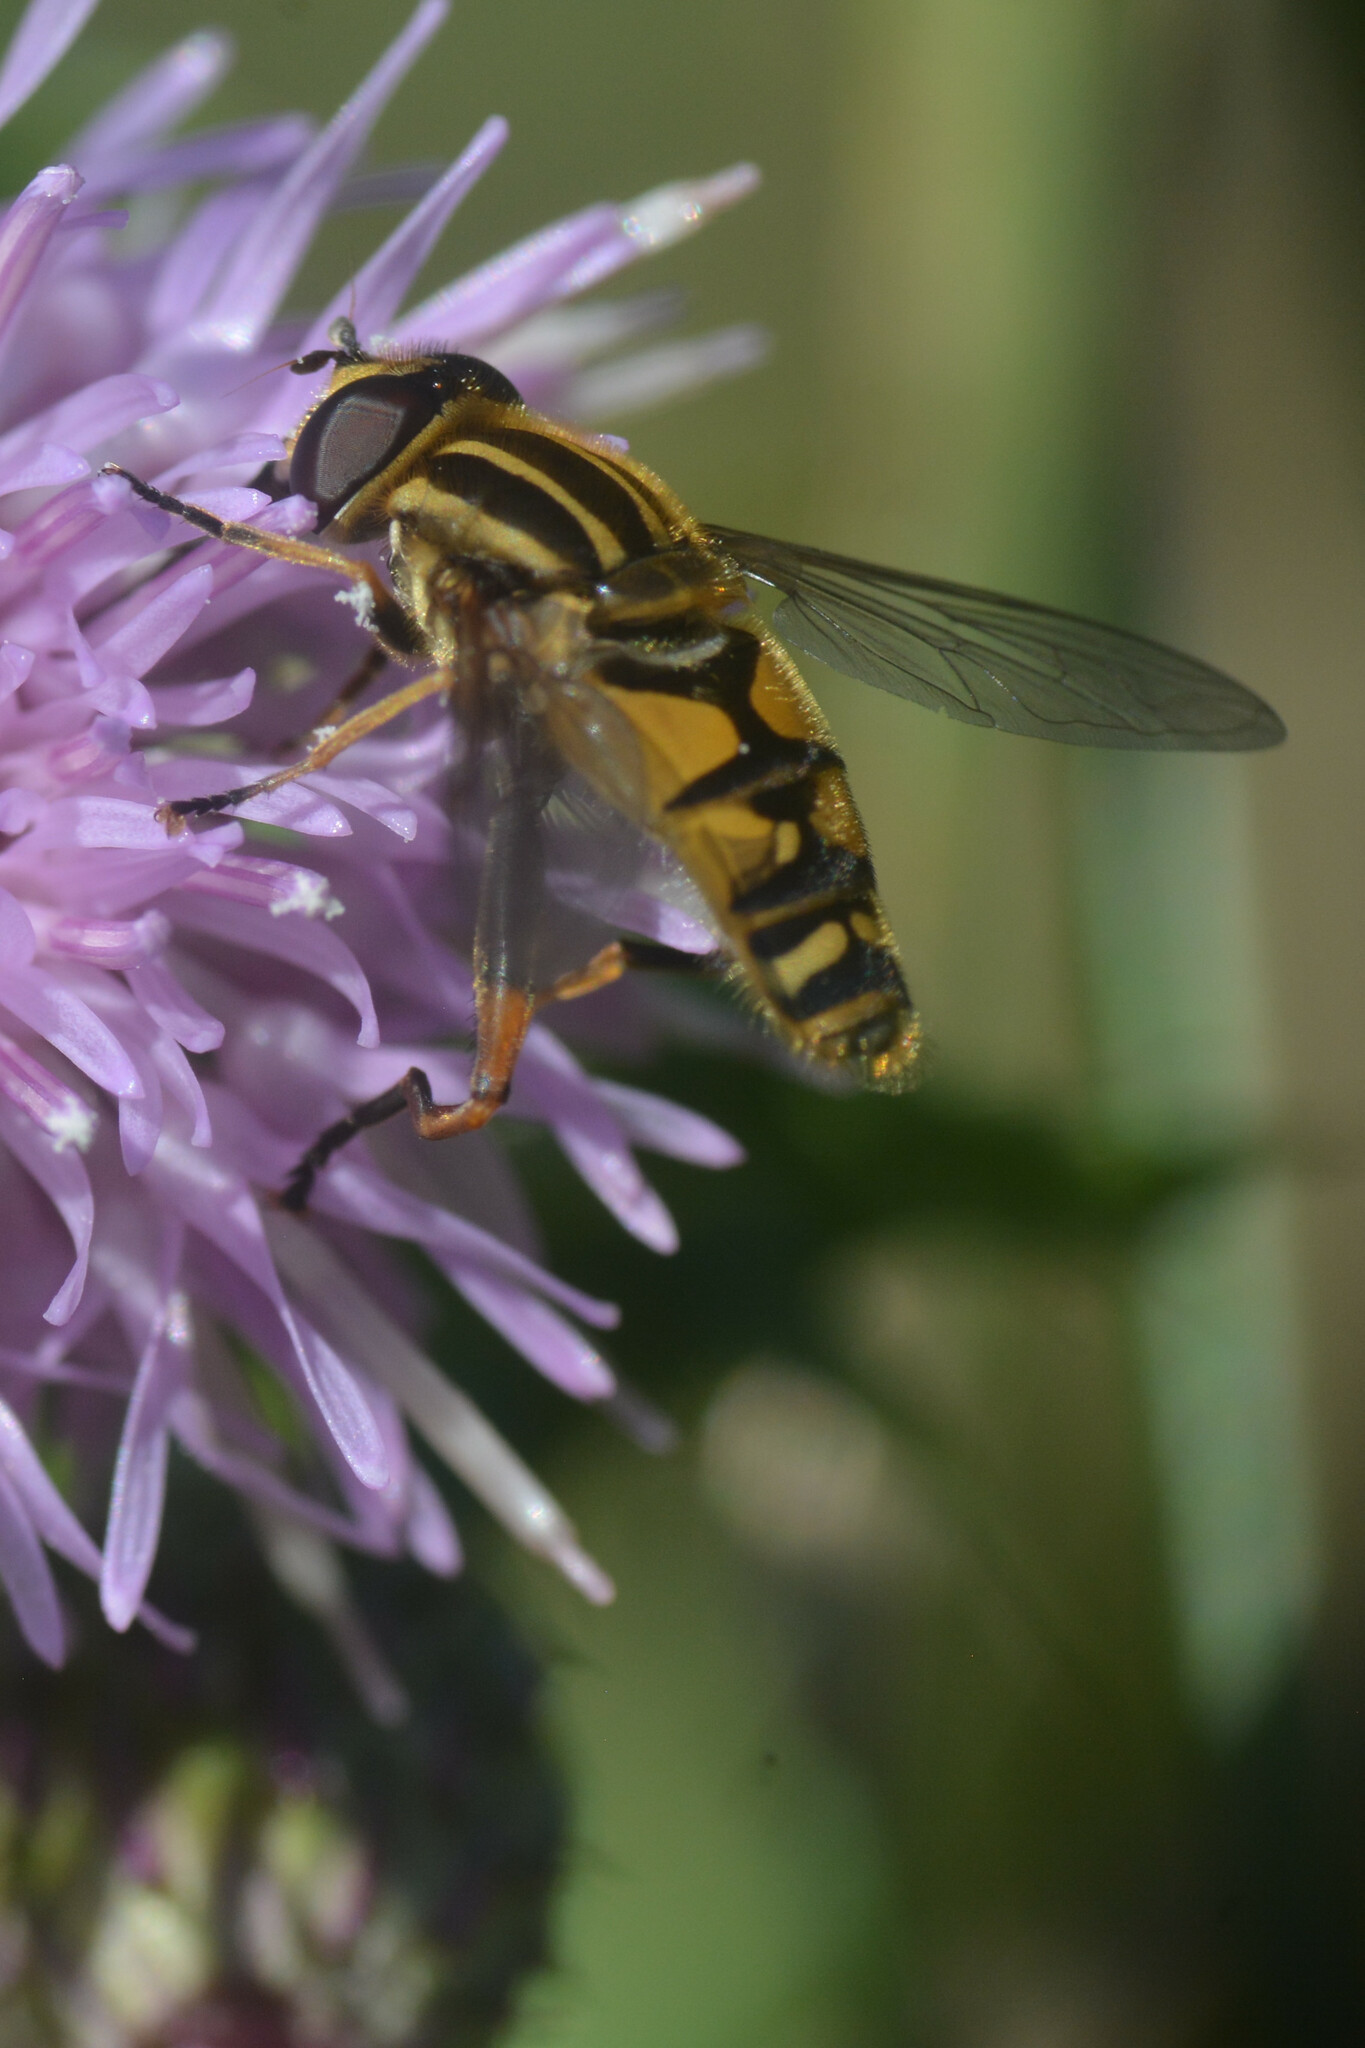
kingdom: Animalia
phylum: Arthropoda
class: Insecta
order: Diptera
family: Syrphidae
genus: Helophilus
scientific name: Helophilus pendulus
